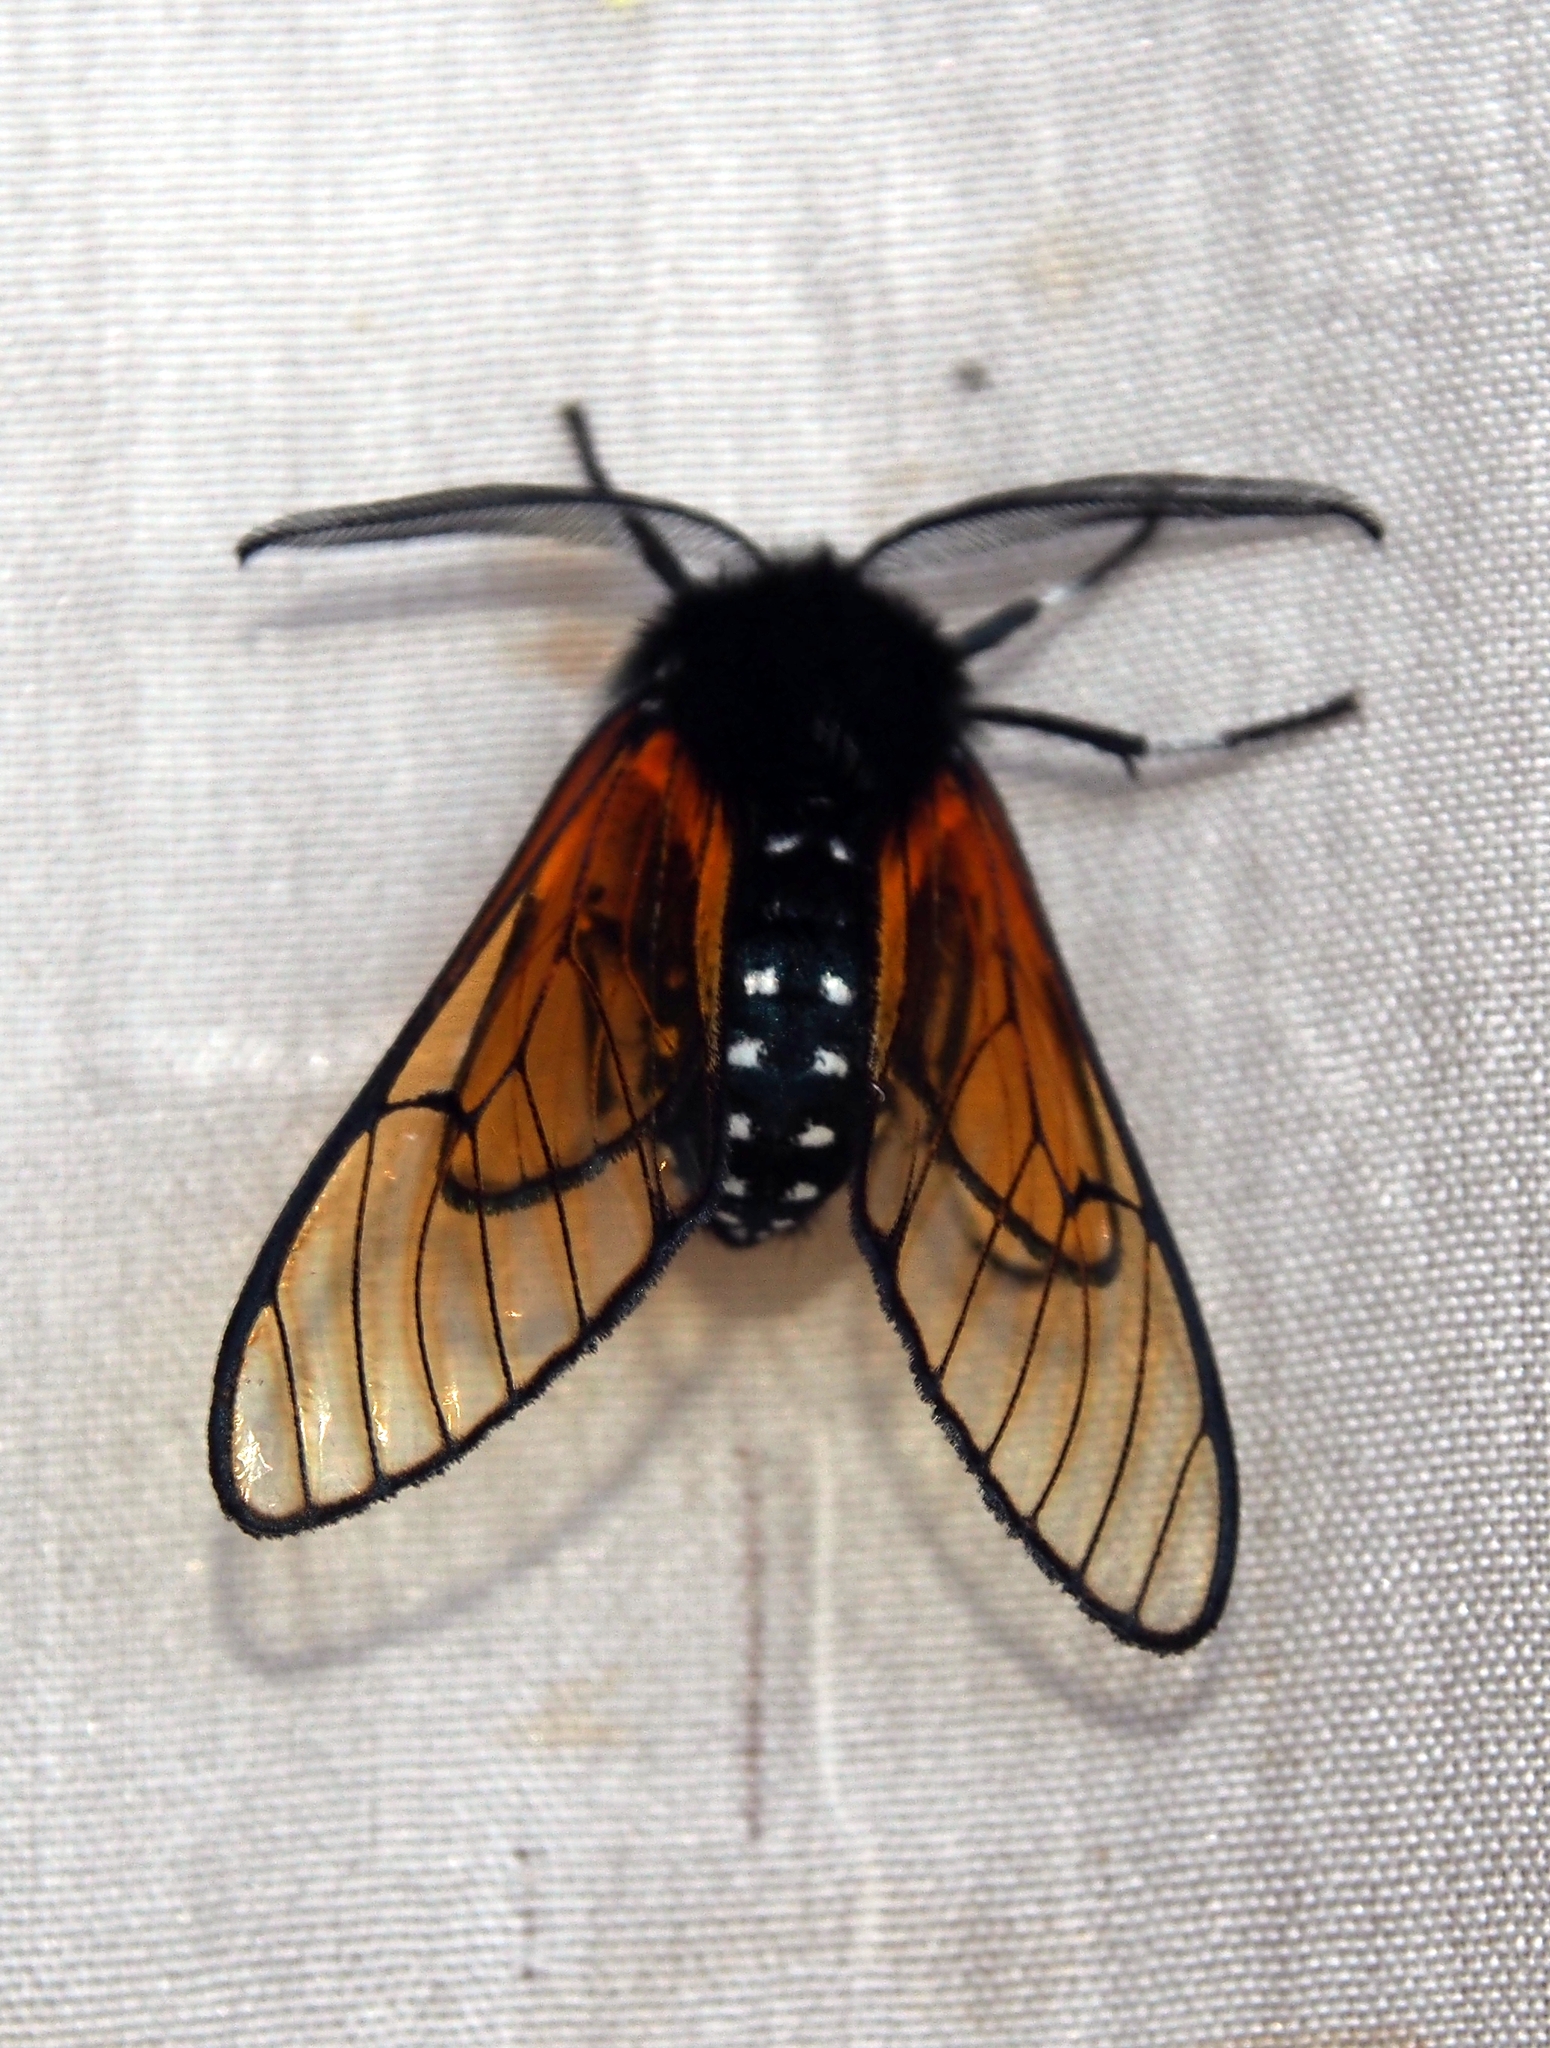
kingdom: Animalia
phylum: Arthropoda
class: Insecta
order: Lepidoptera
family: Erebidae
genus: Dasysphinx
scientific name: Dasysphinx volatilis
